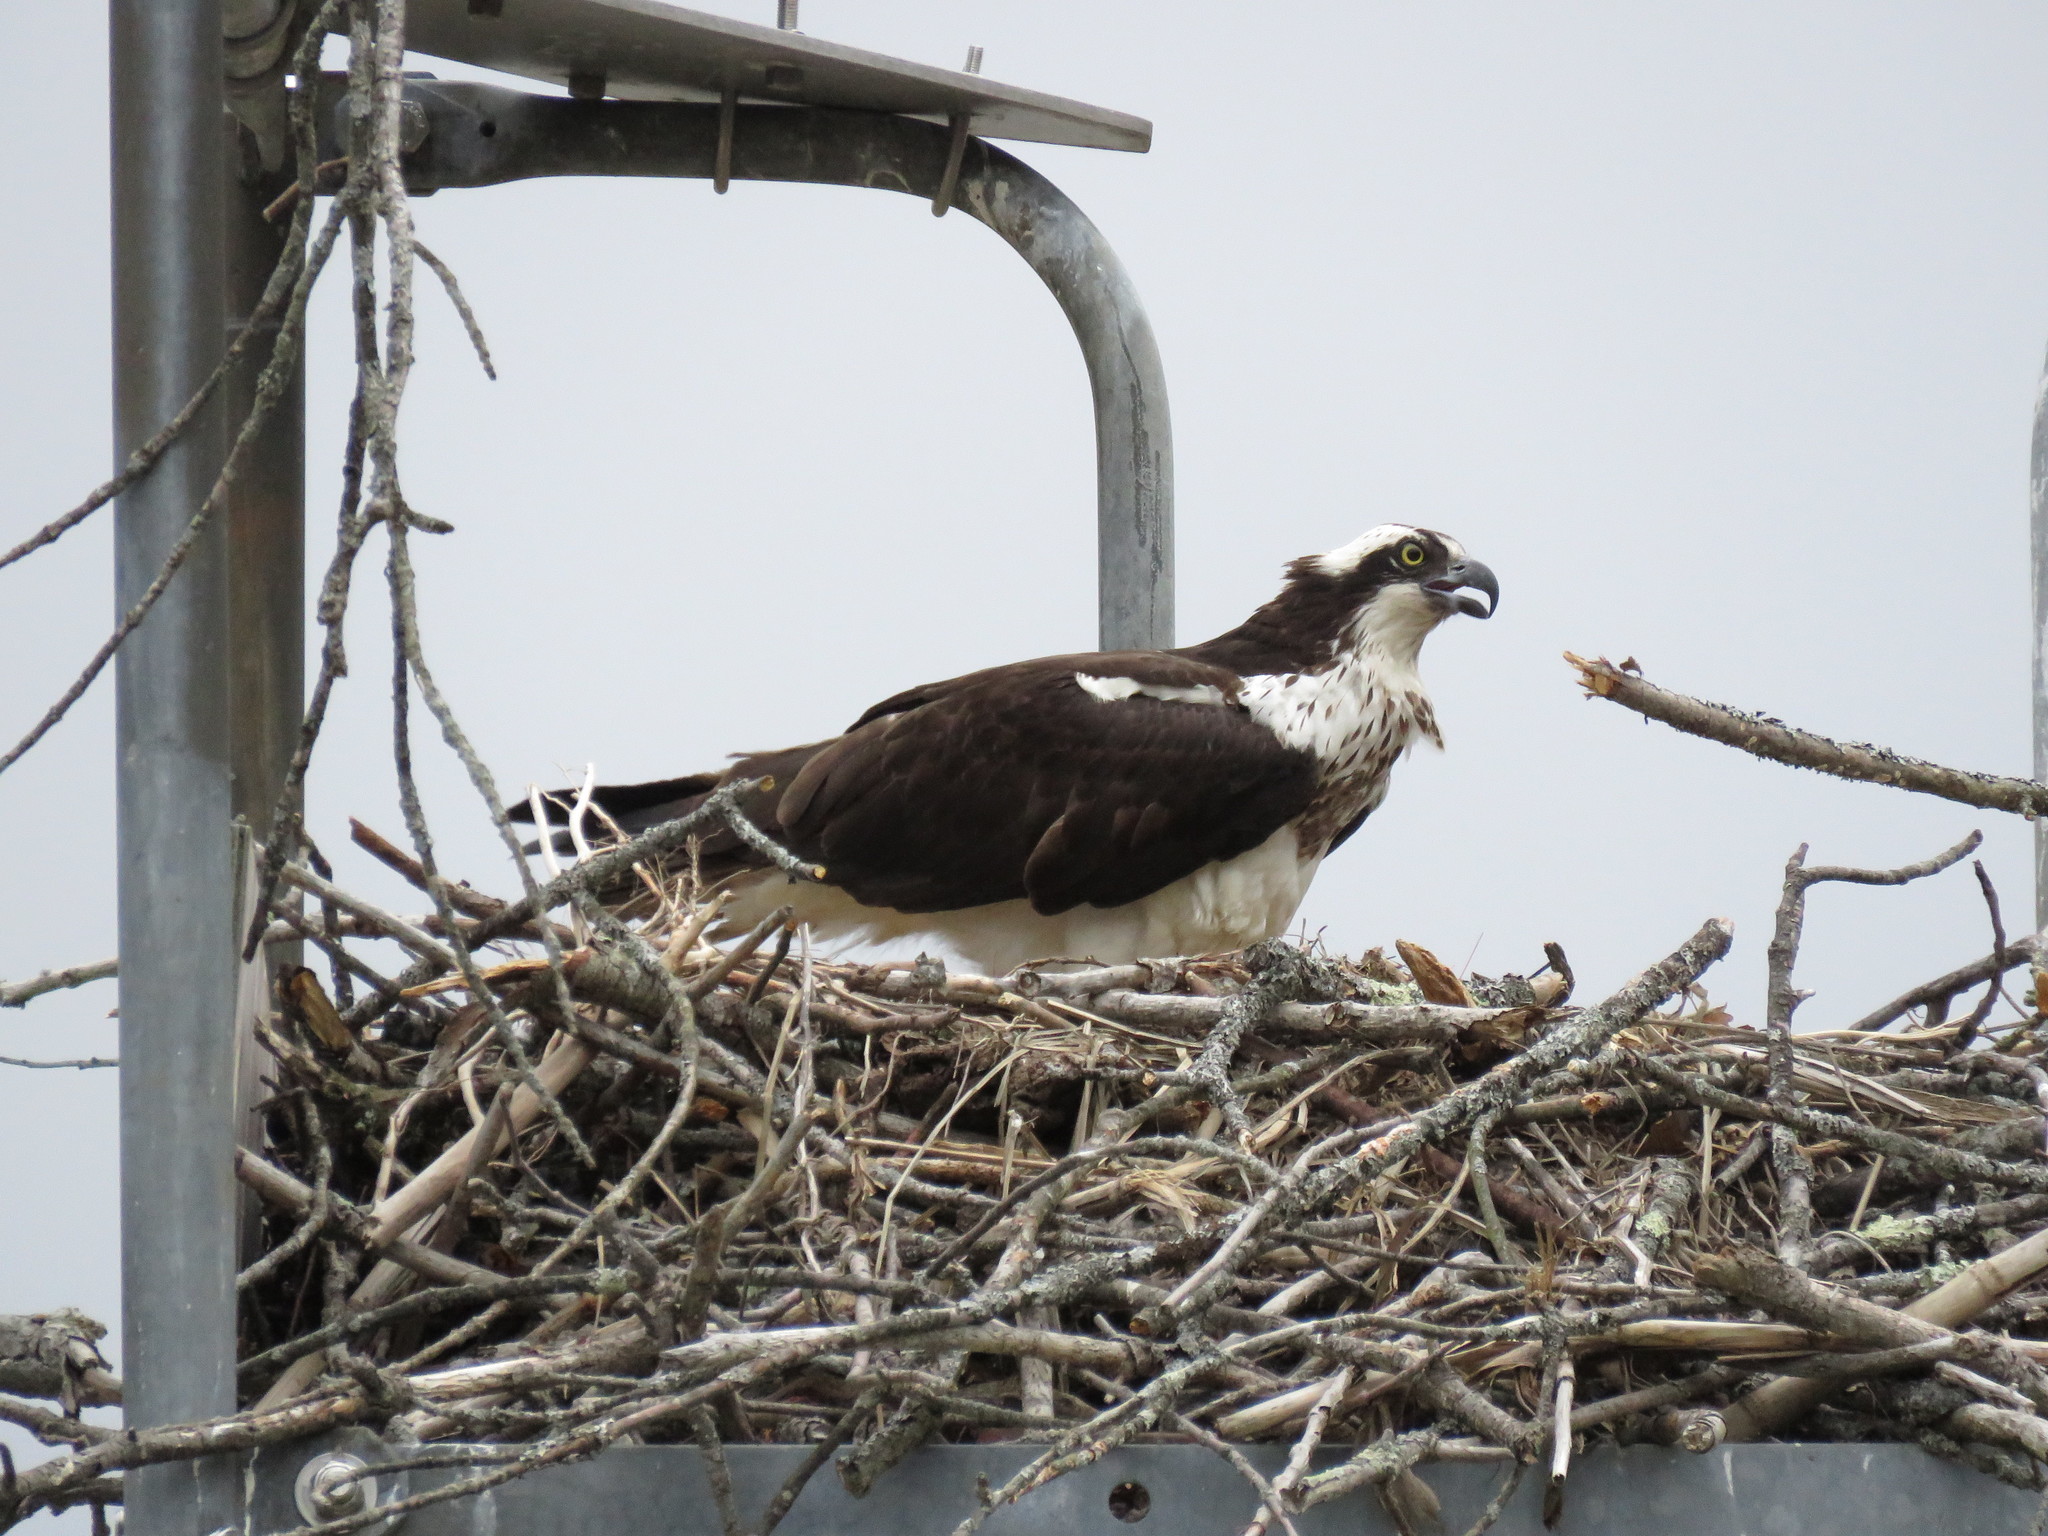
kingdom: Animalia
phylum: Chordata
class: Aves
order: Accipitriformes
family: Pandionidae
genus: Pandion
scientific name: Pandion haliaetus
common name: Osprey
